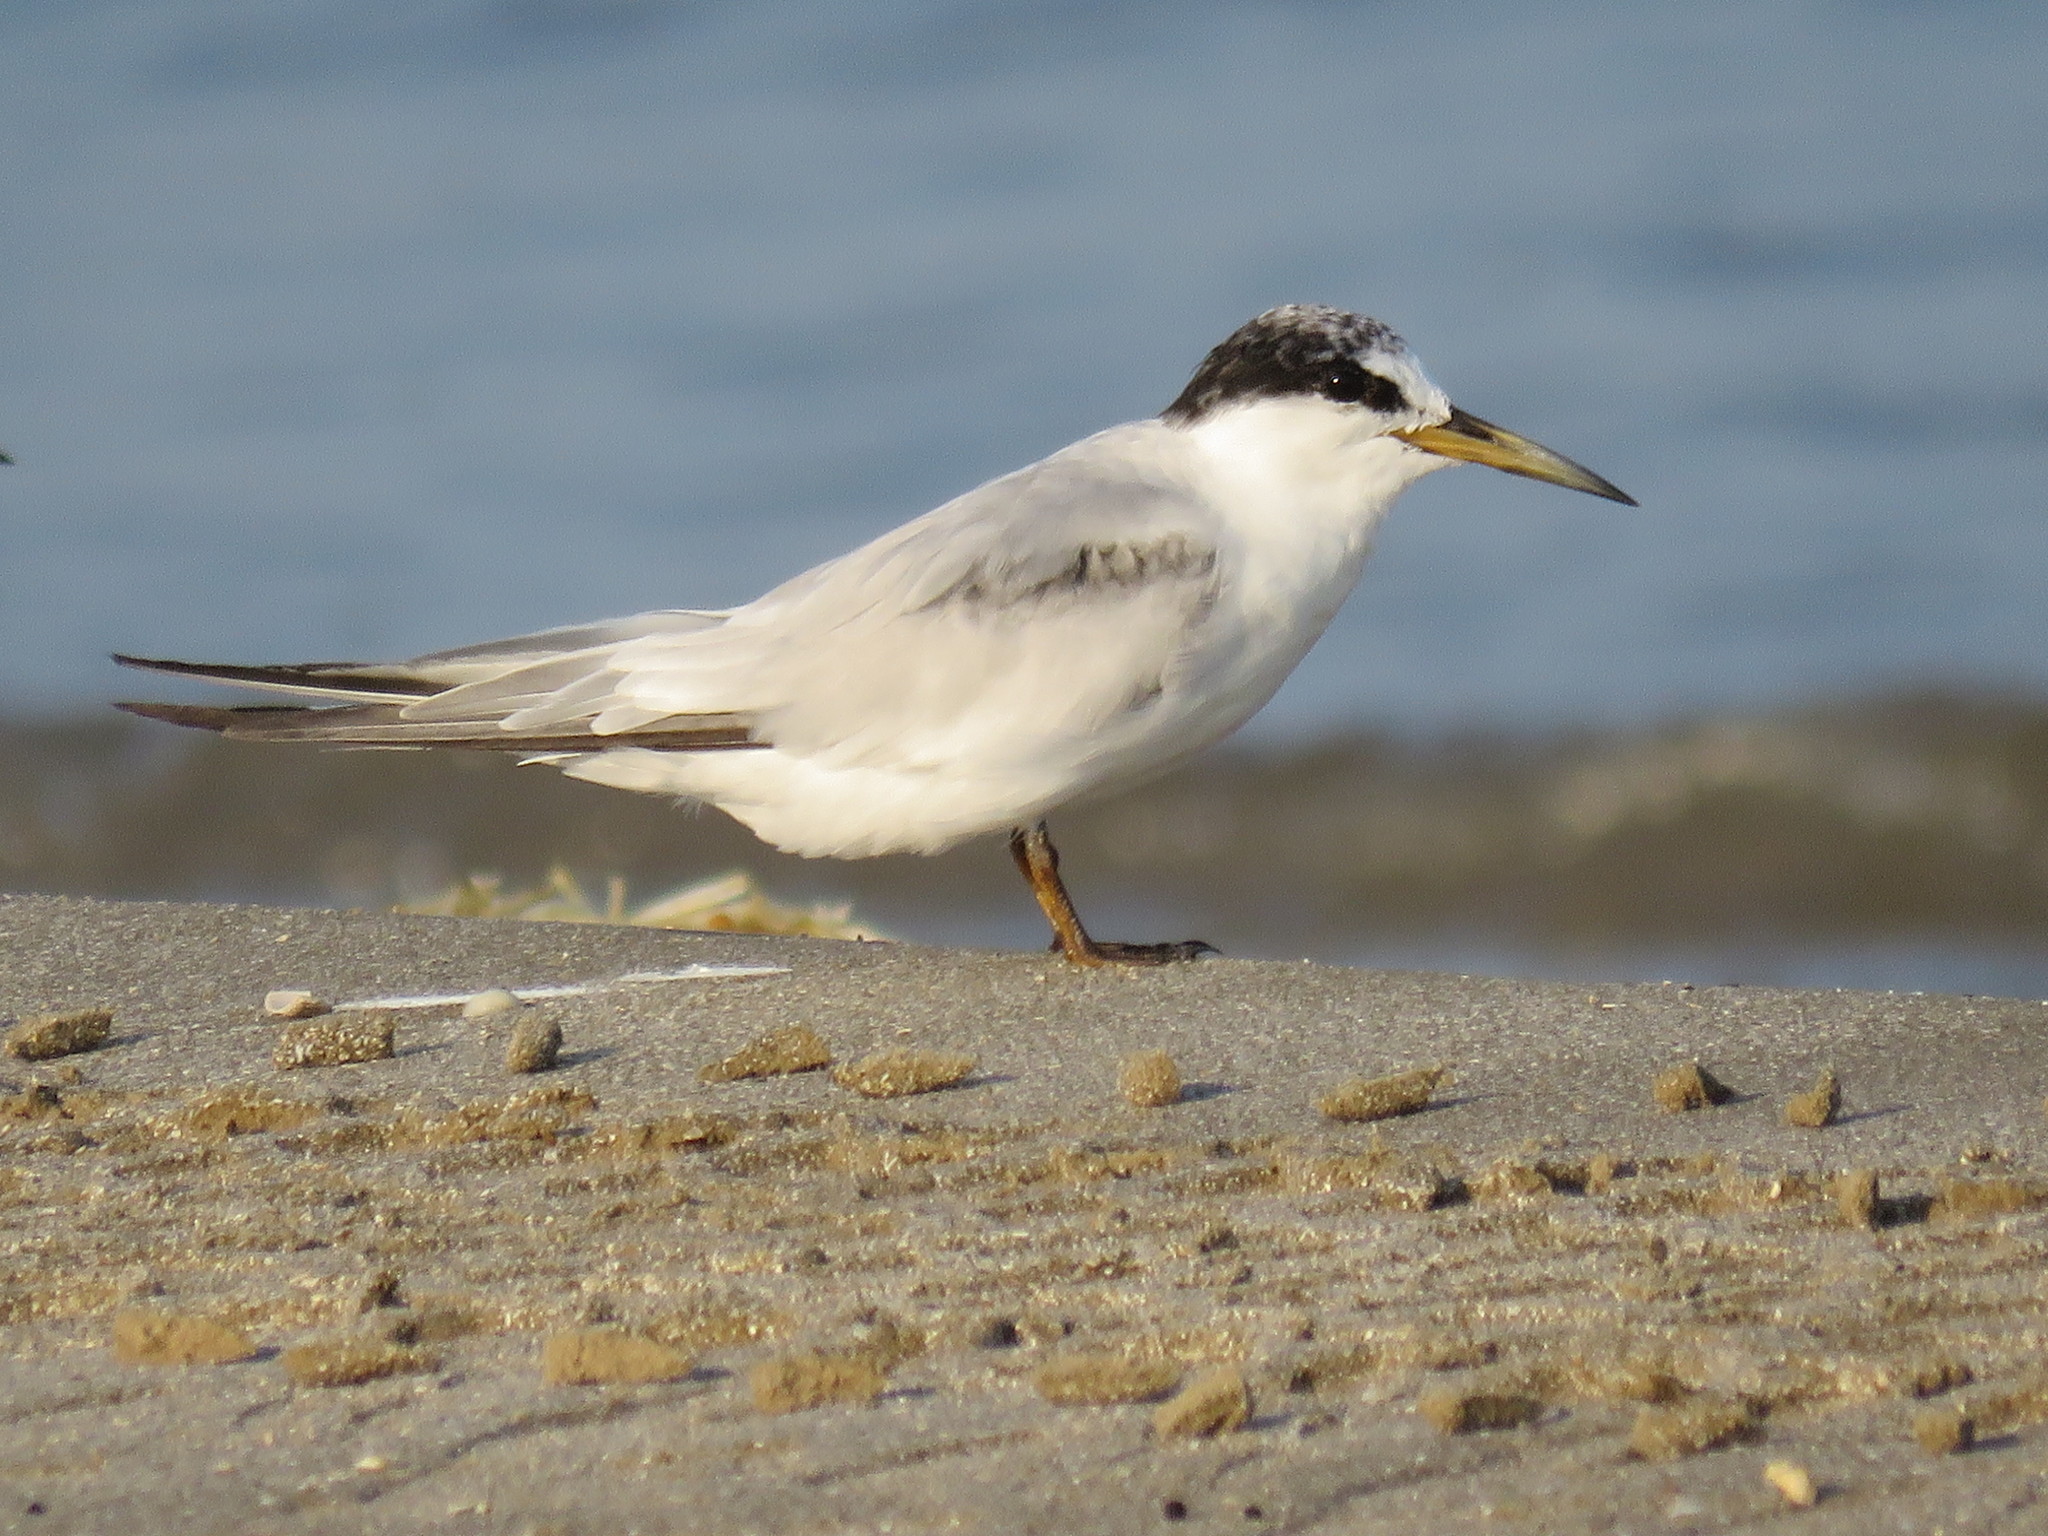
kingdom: Animalia
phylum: Chordata
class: Aves
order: Charadriiformes
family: Laridae
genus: Sterna
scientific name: Sterna hirundo
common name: Common tern
